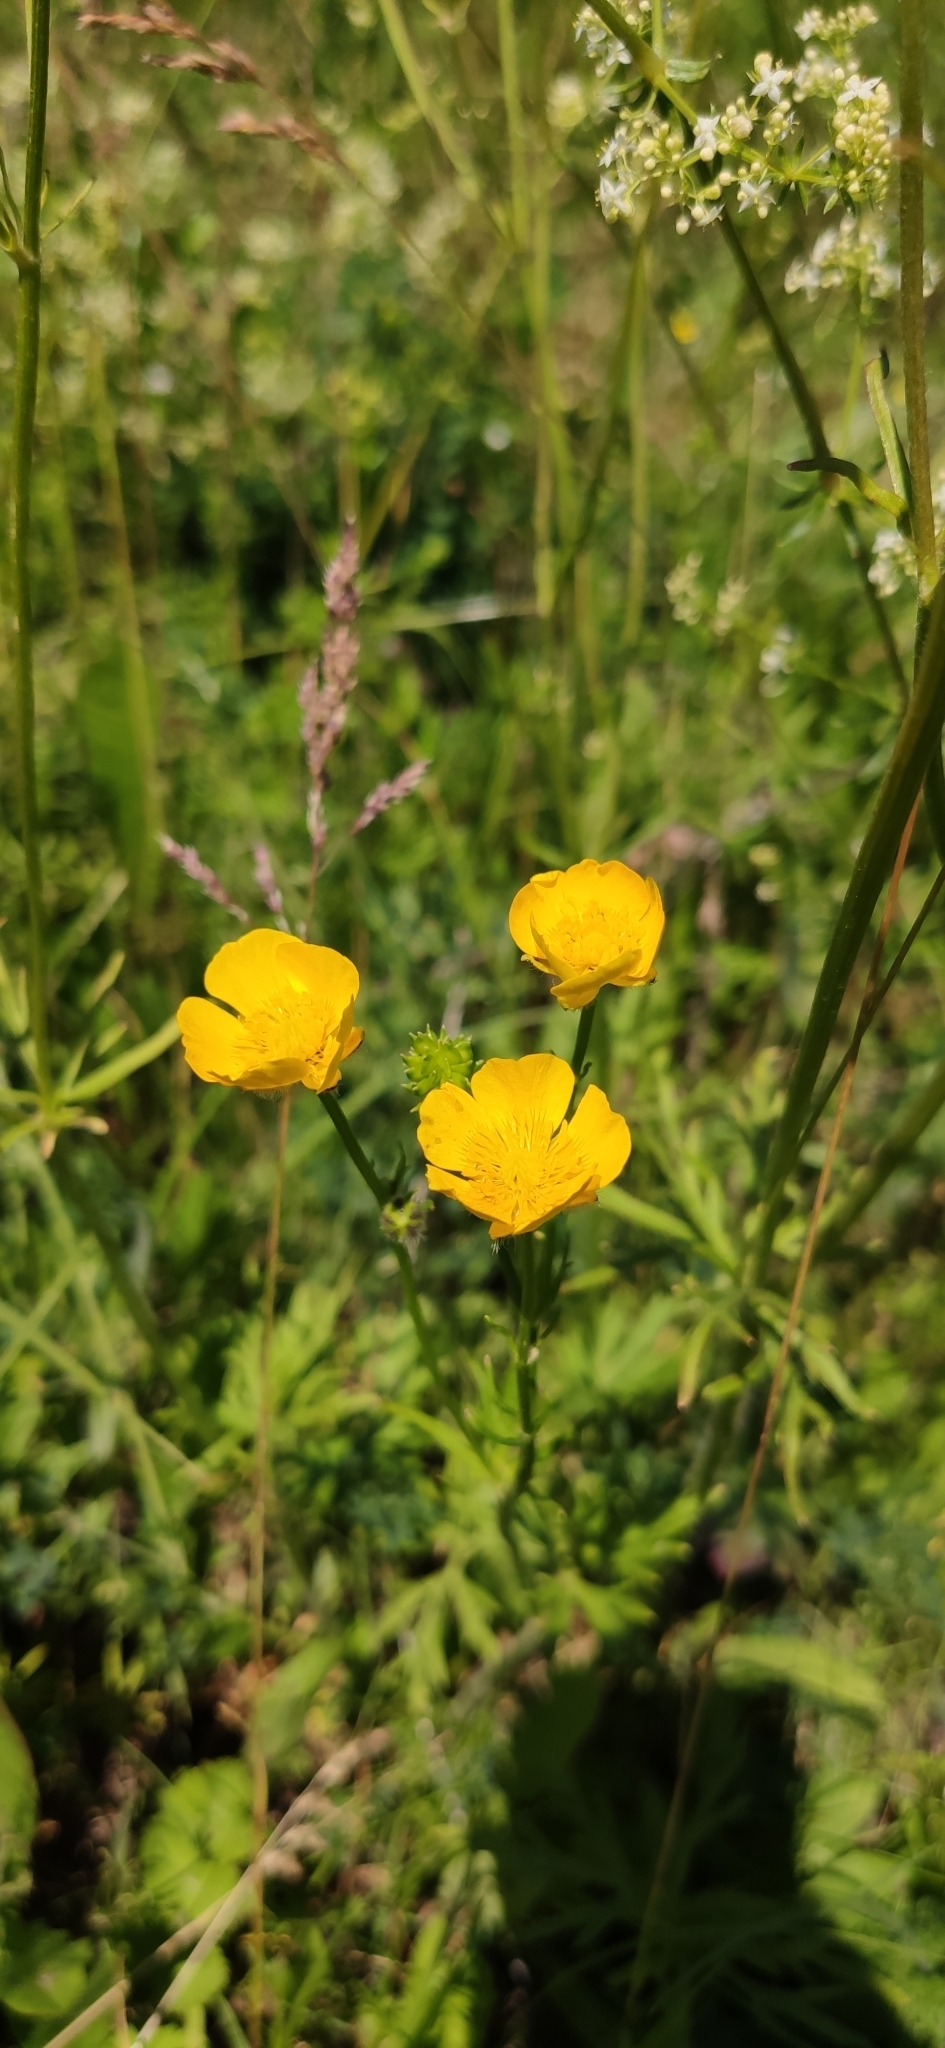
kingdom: Plantae
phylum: Tracheophyta
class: Magnoliopsida
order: Ranunculales
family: Ranunculaceae
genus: Ranunculus
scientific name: Ranunculus polyanthemos
